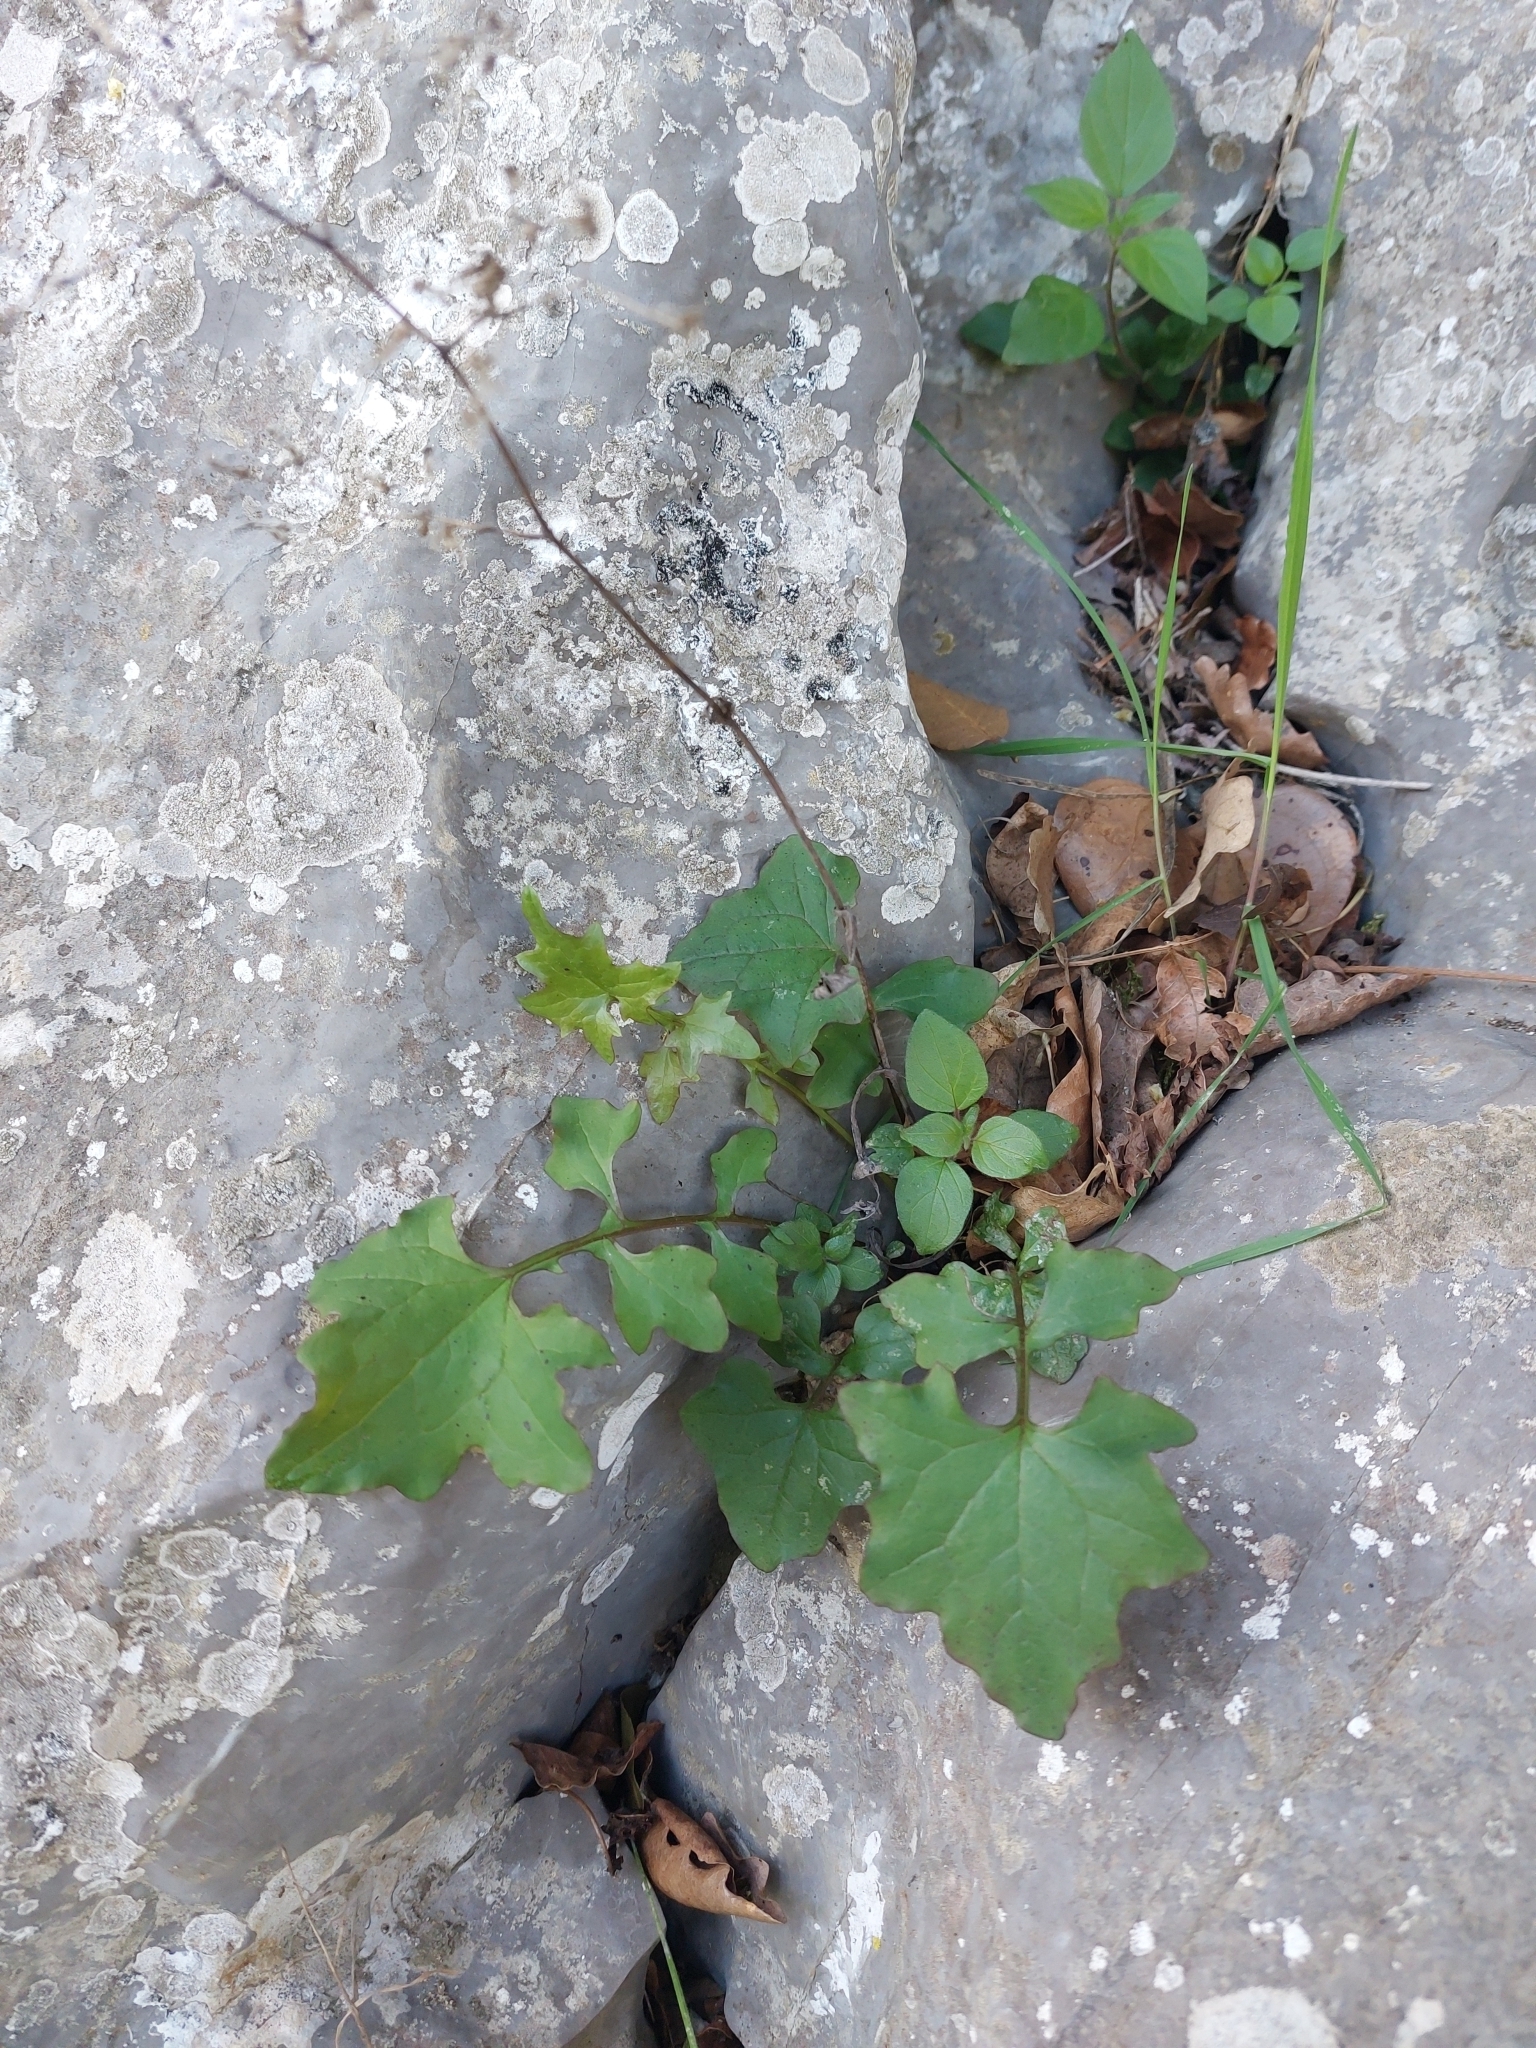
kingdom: Plantae
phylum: Tracheophyta
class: Magnoliopsida
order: Asterales
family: Asteraceae
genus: Mycelis
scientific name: Mycelis muralis
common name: Wall lettuce
